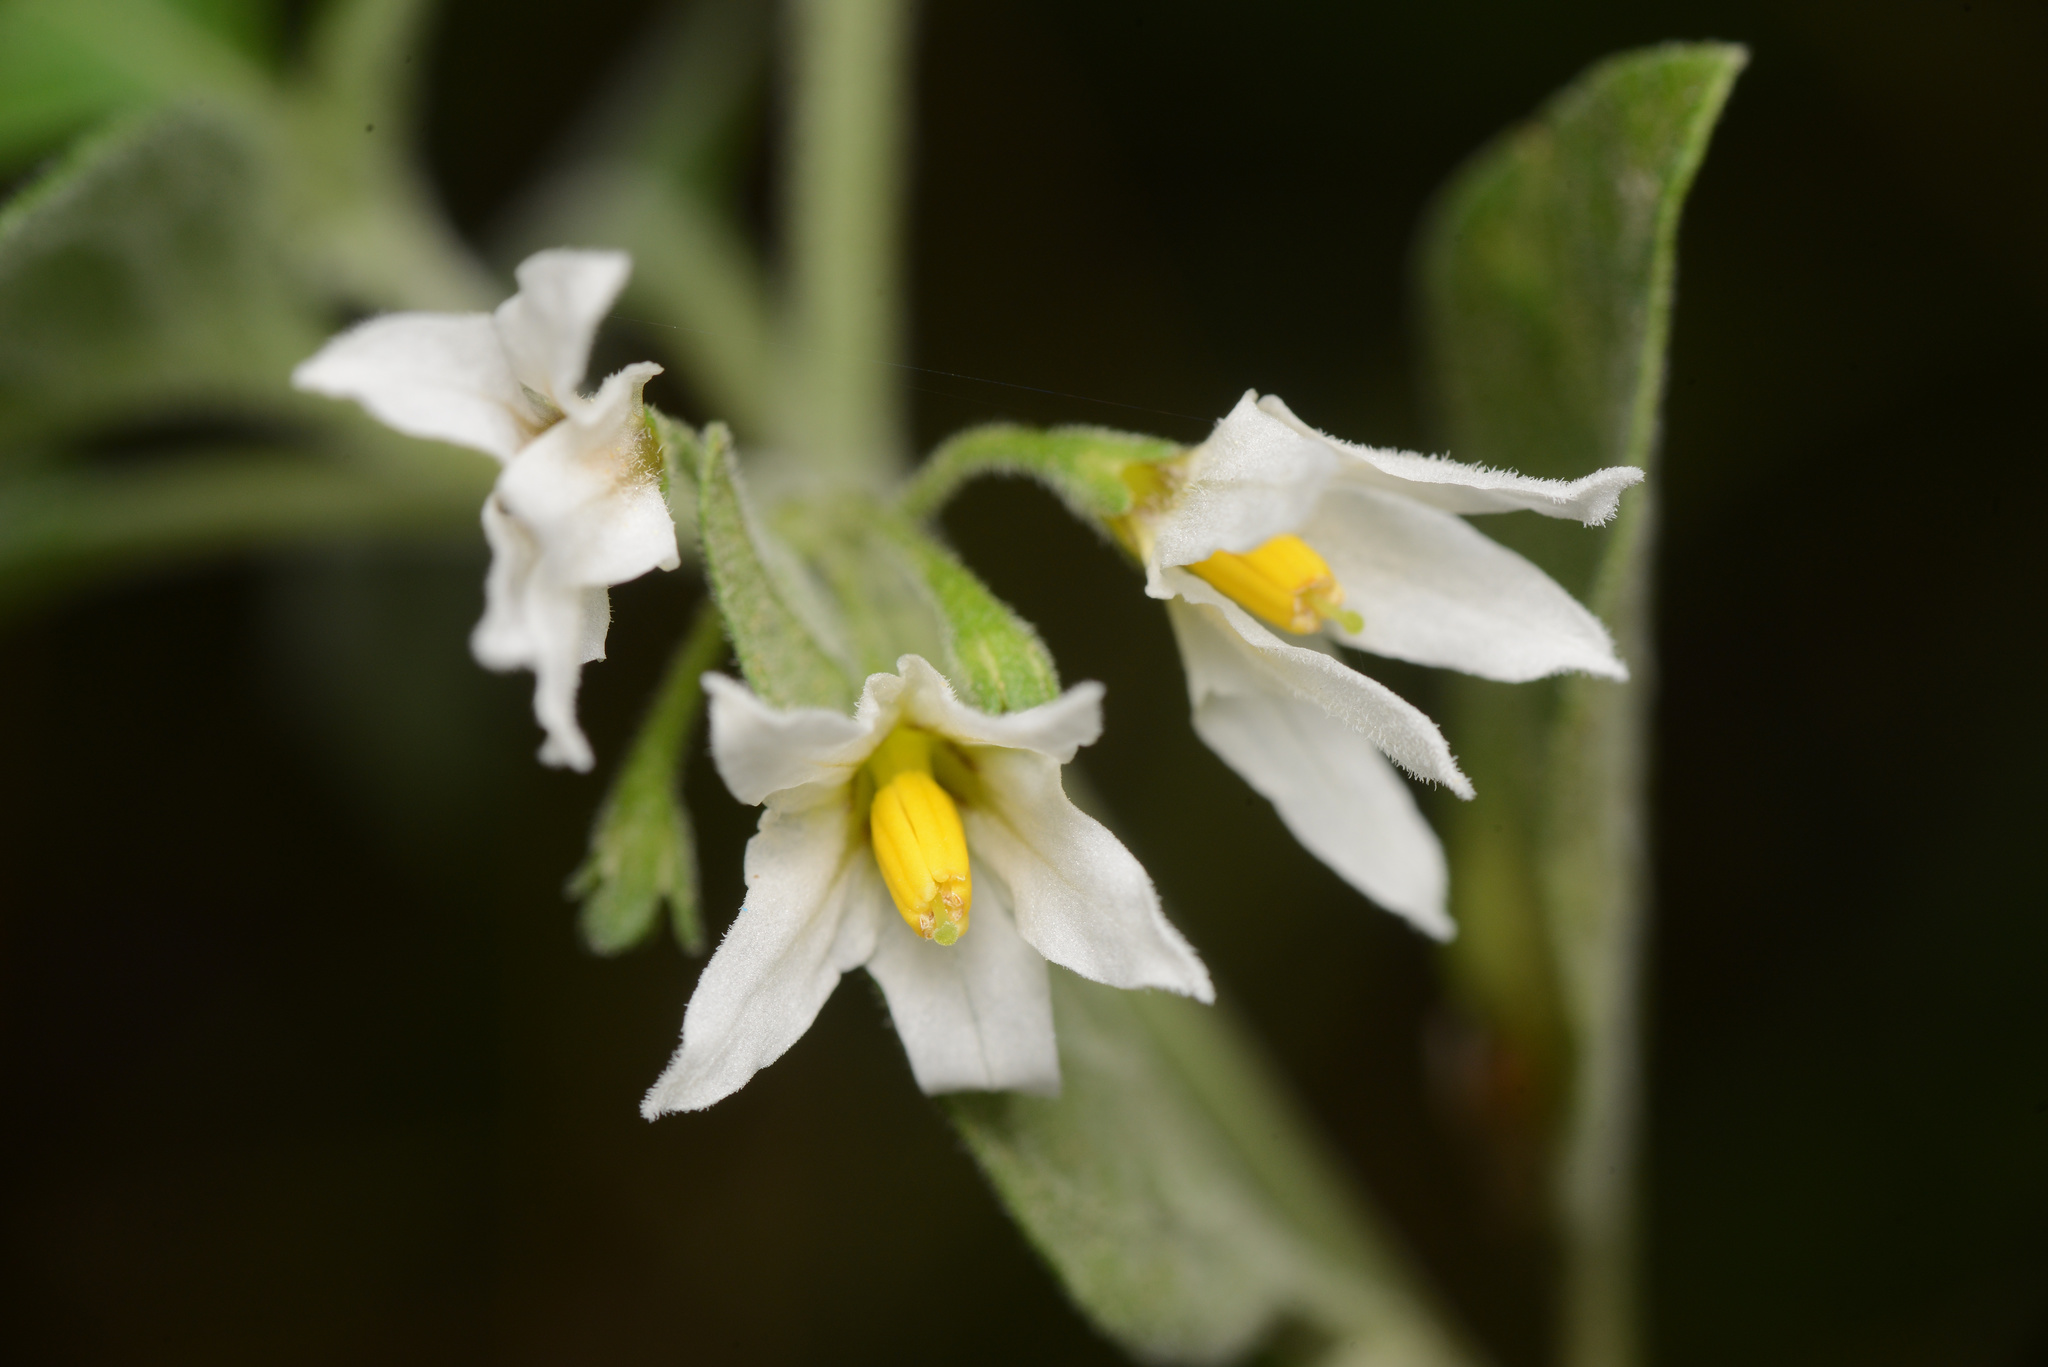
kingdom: Plantae
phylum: Tracheophyta
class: Magnoliopsida
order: Solanales
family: Solanaceae
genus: Solanum
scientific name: Solanum chenopodioides
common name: Tall nightshade
